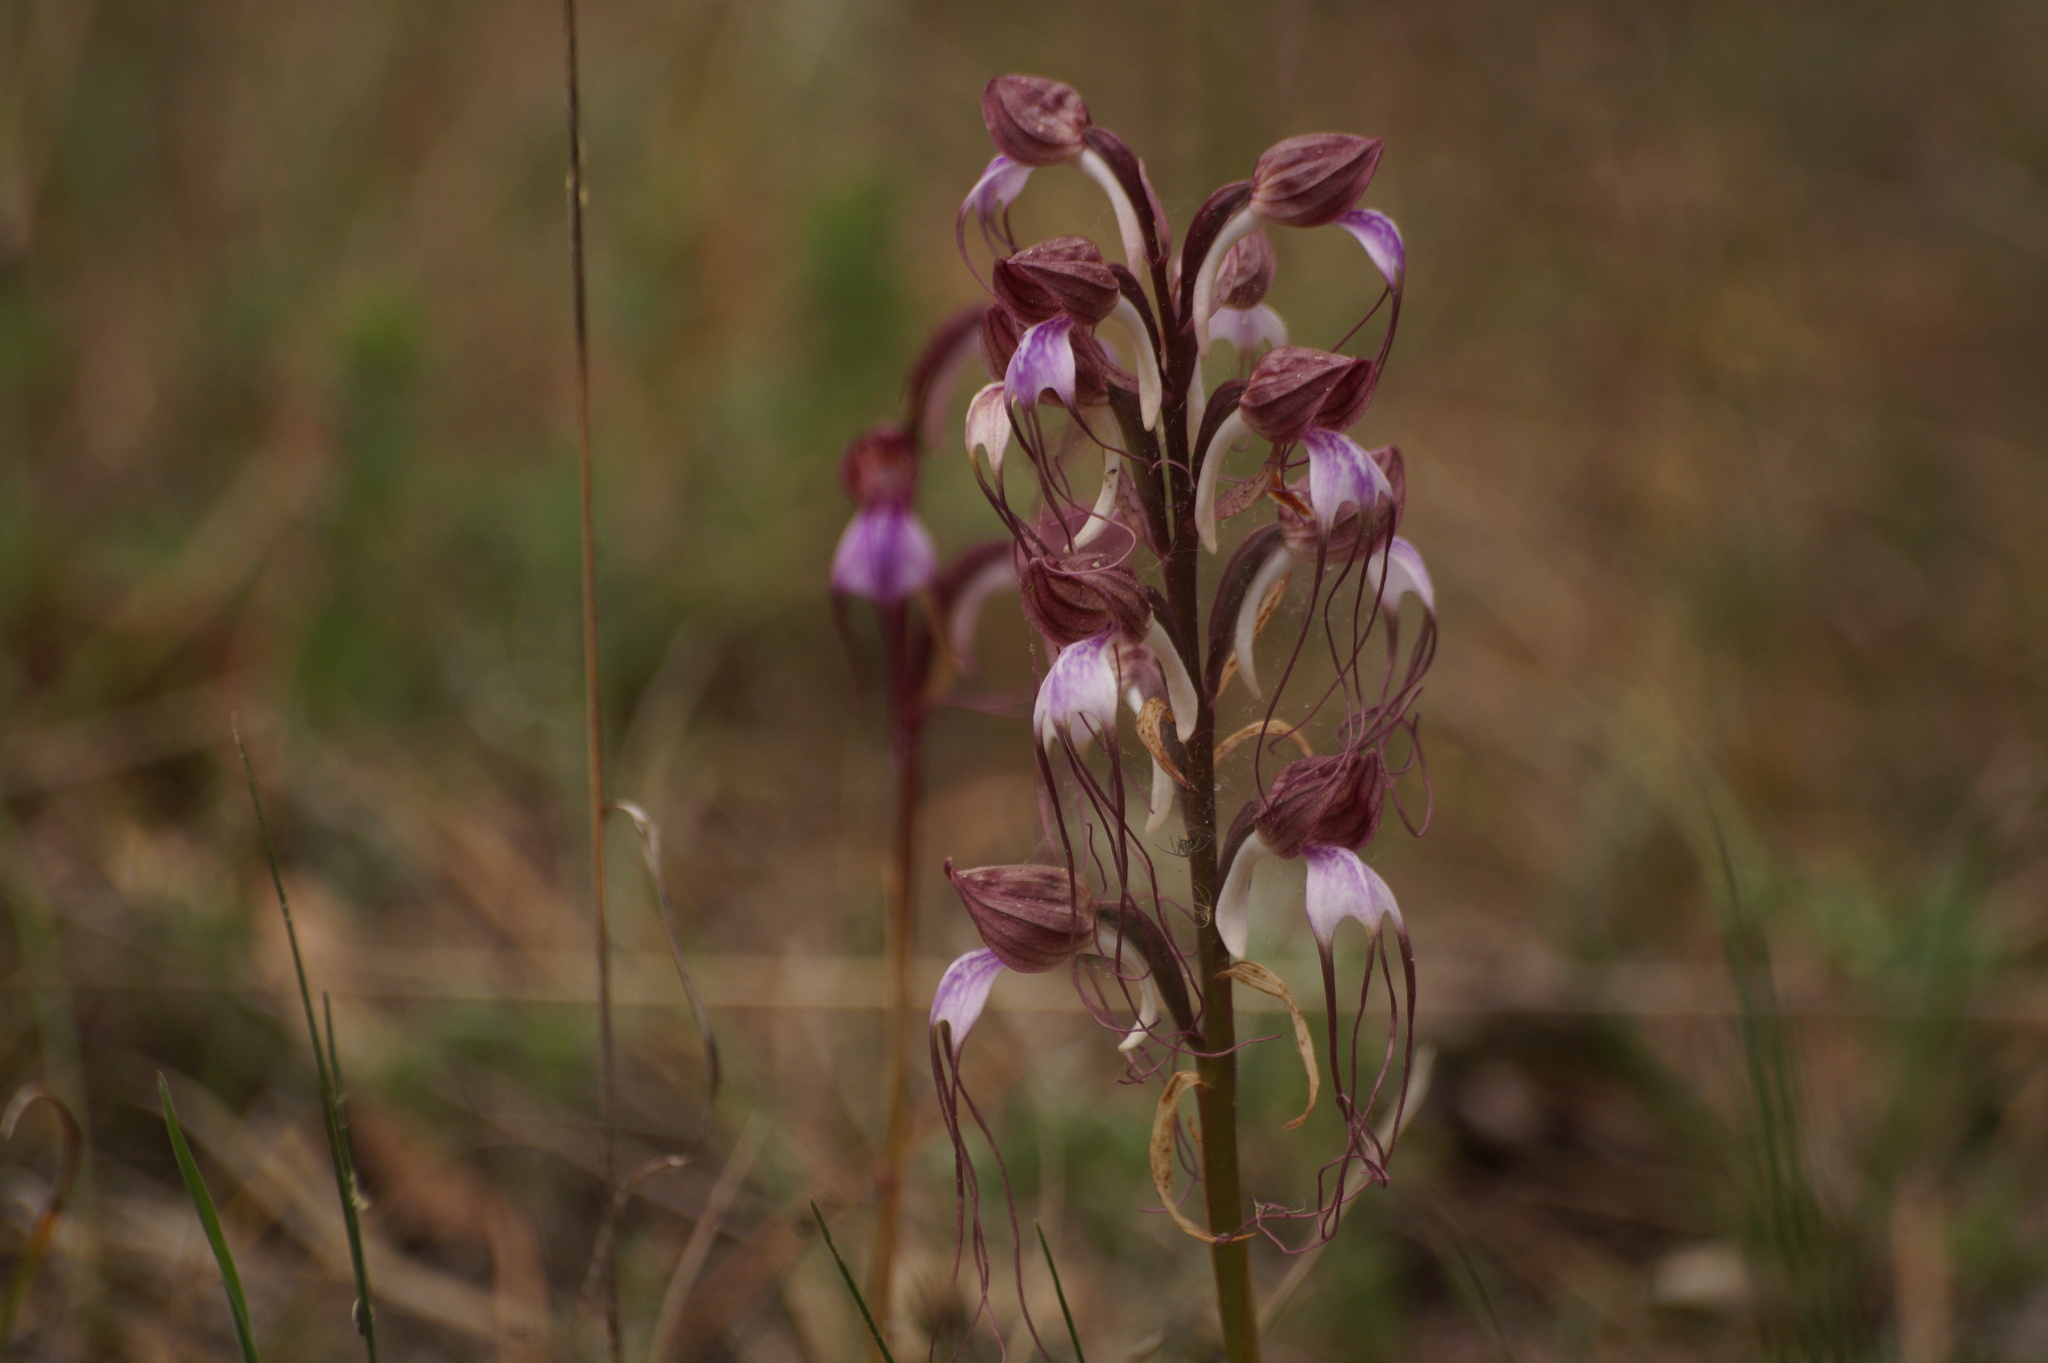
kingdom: Plantae
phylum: Tracheophyta
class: Liliopsida
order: Asparagales
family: Orchidaceae
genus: Himantoglossum
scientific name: Himantoglossum comperianum
